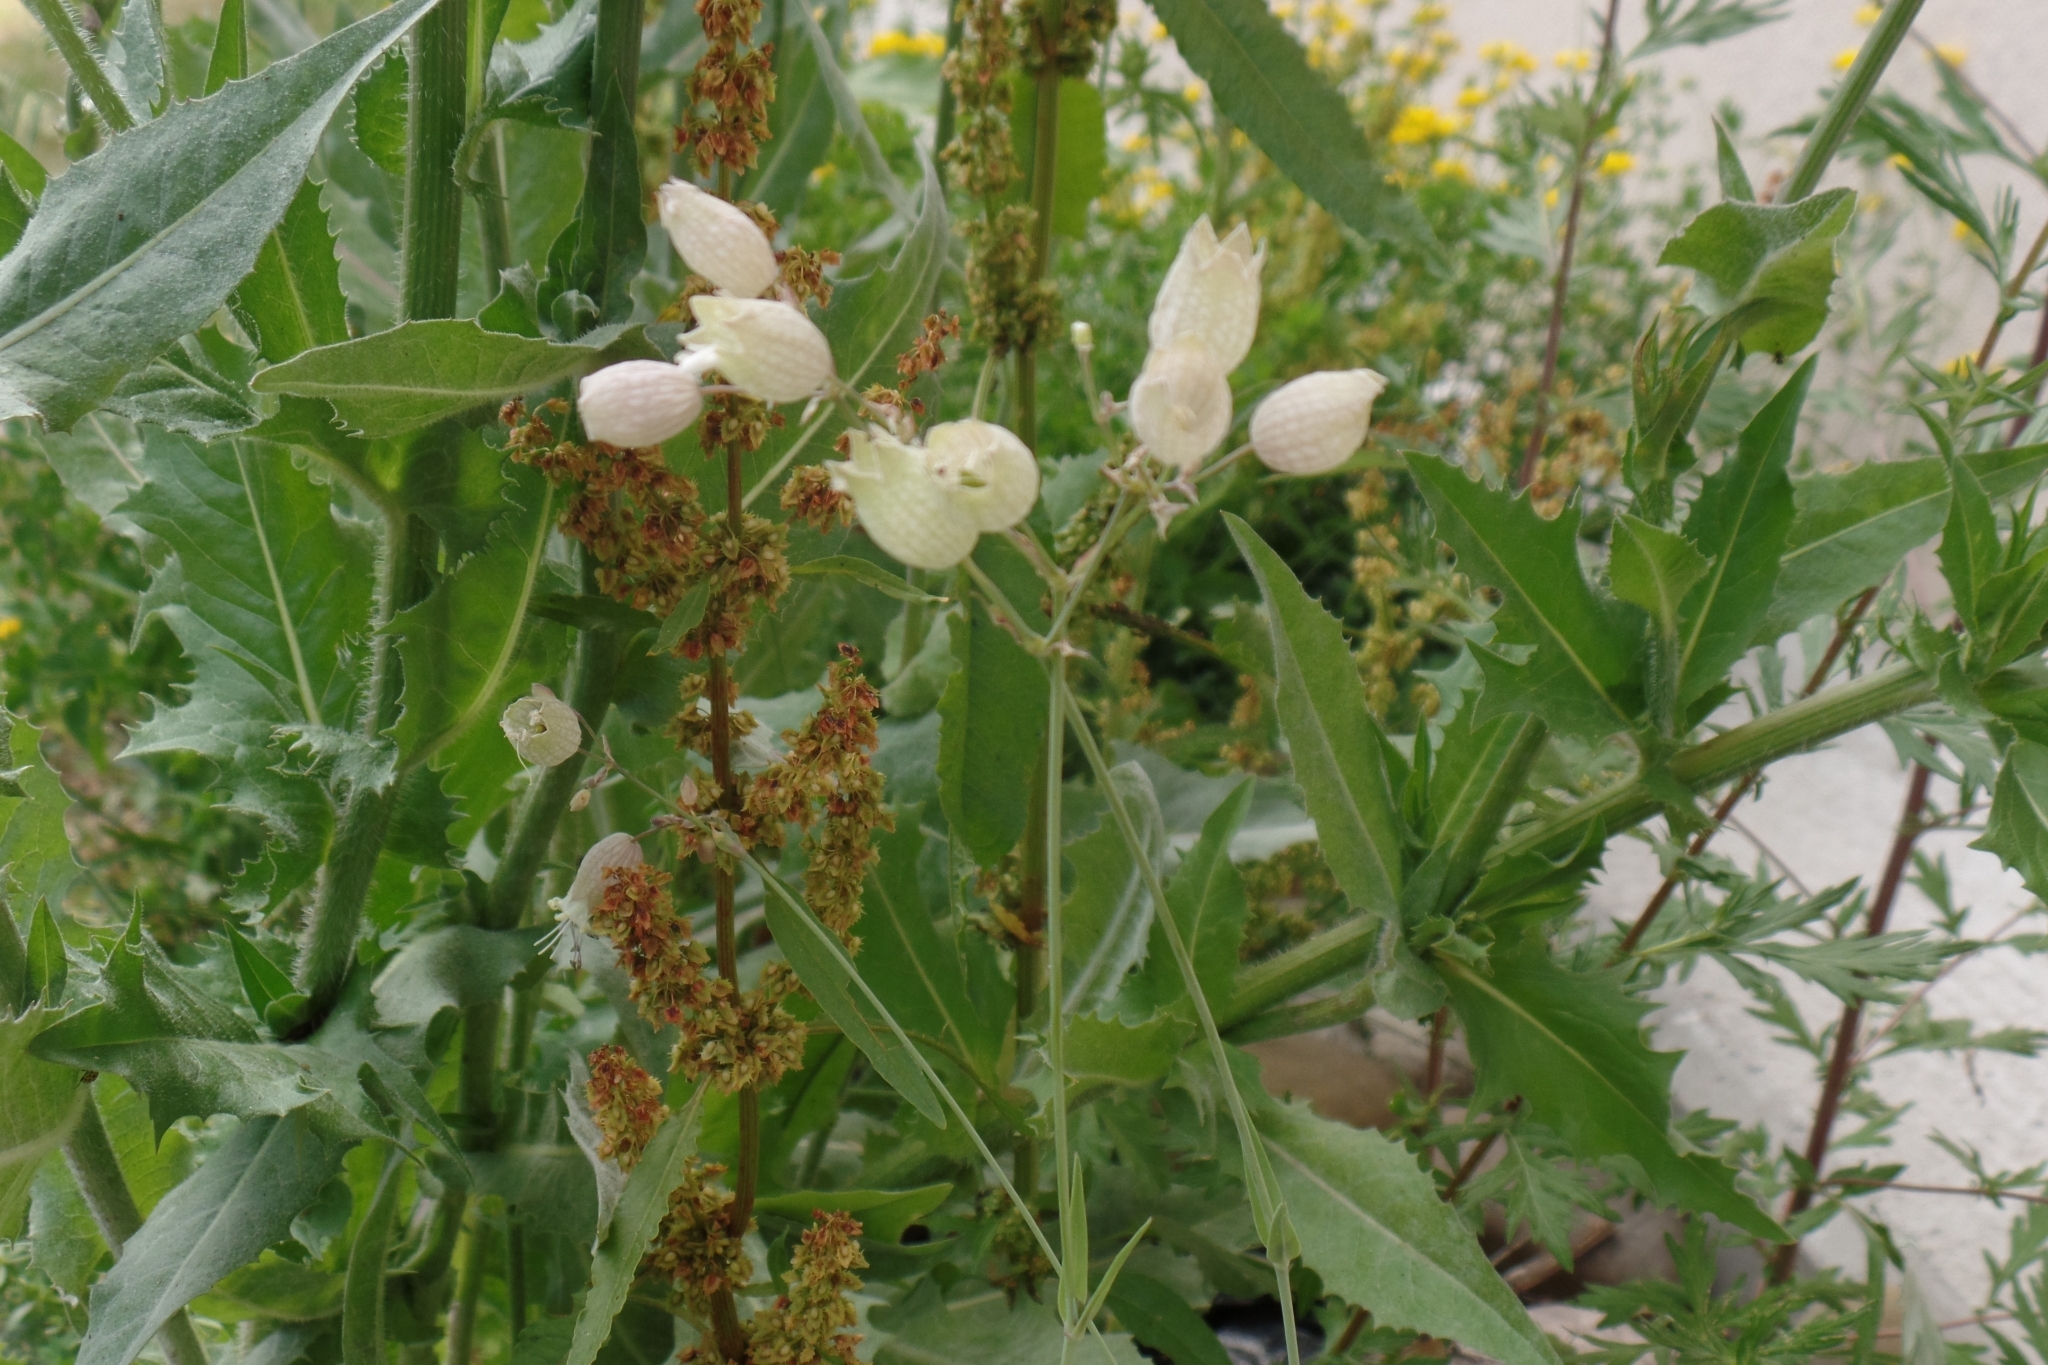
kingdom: Plantae
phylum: Tracheophyta
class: Magnoliopsida
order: Caryophyllales
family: Caryophyllaceae
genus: Silene
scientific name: Silene vulgaris
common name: Bladder campion
